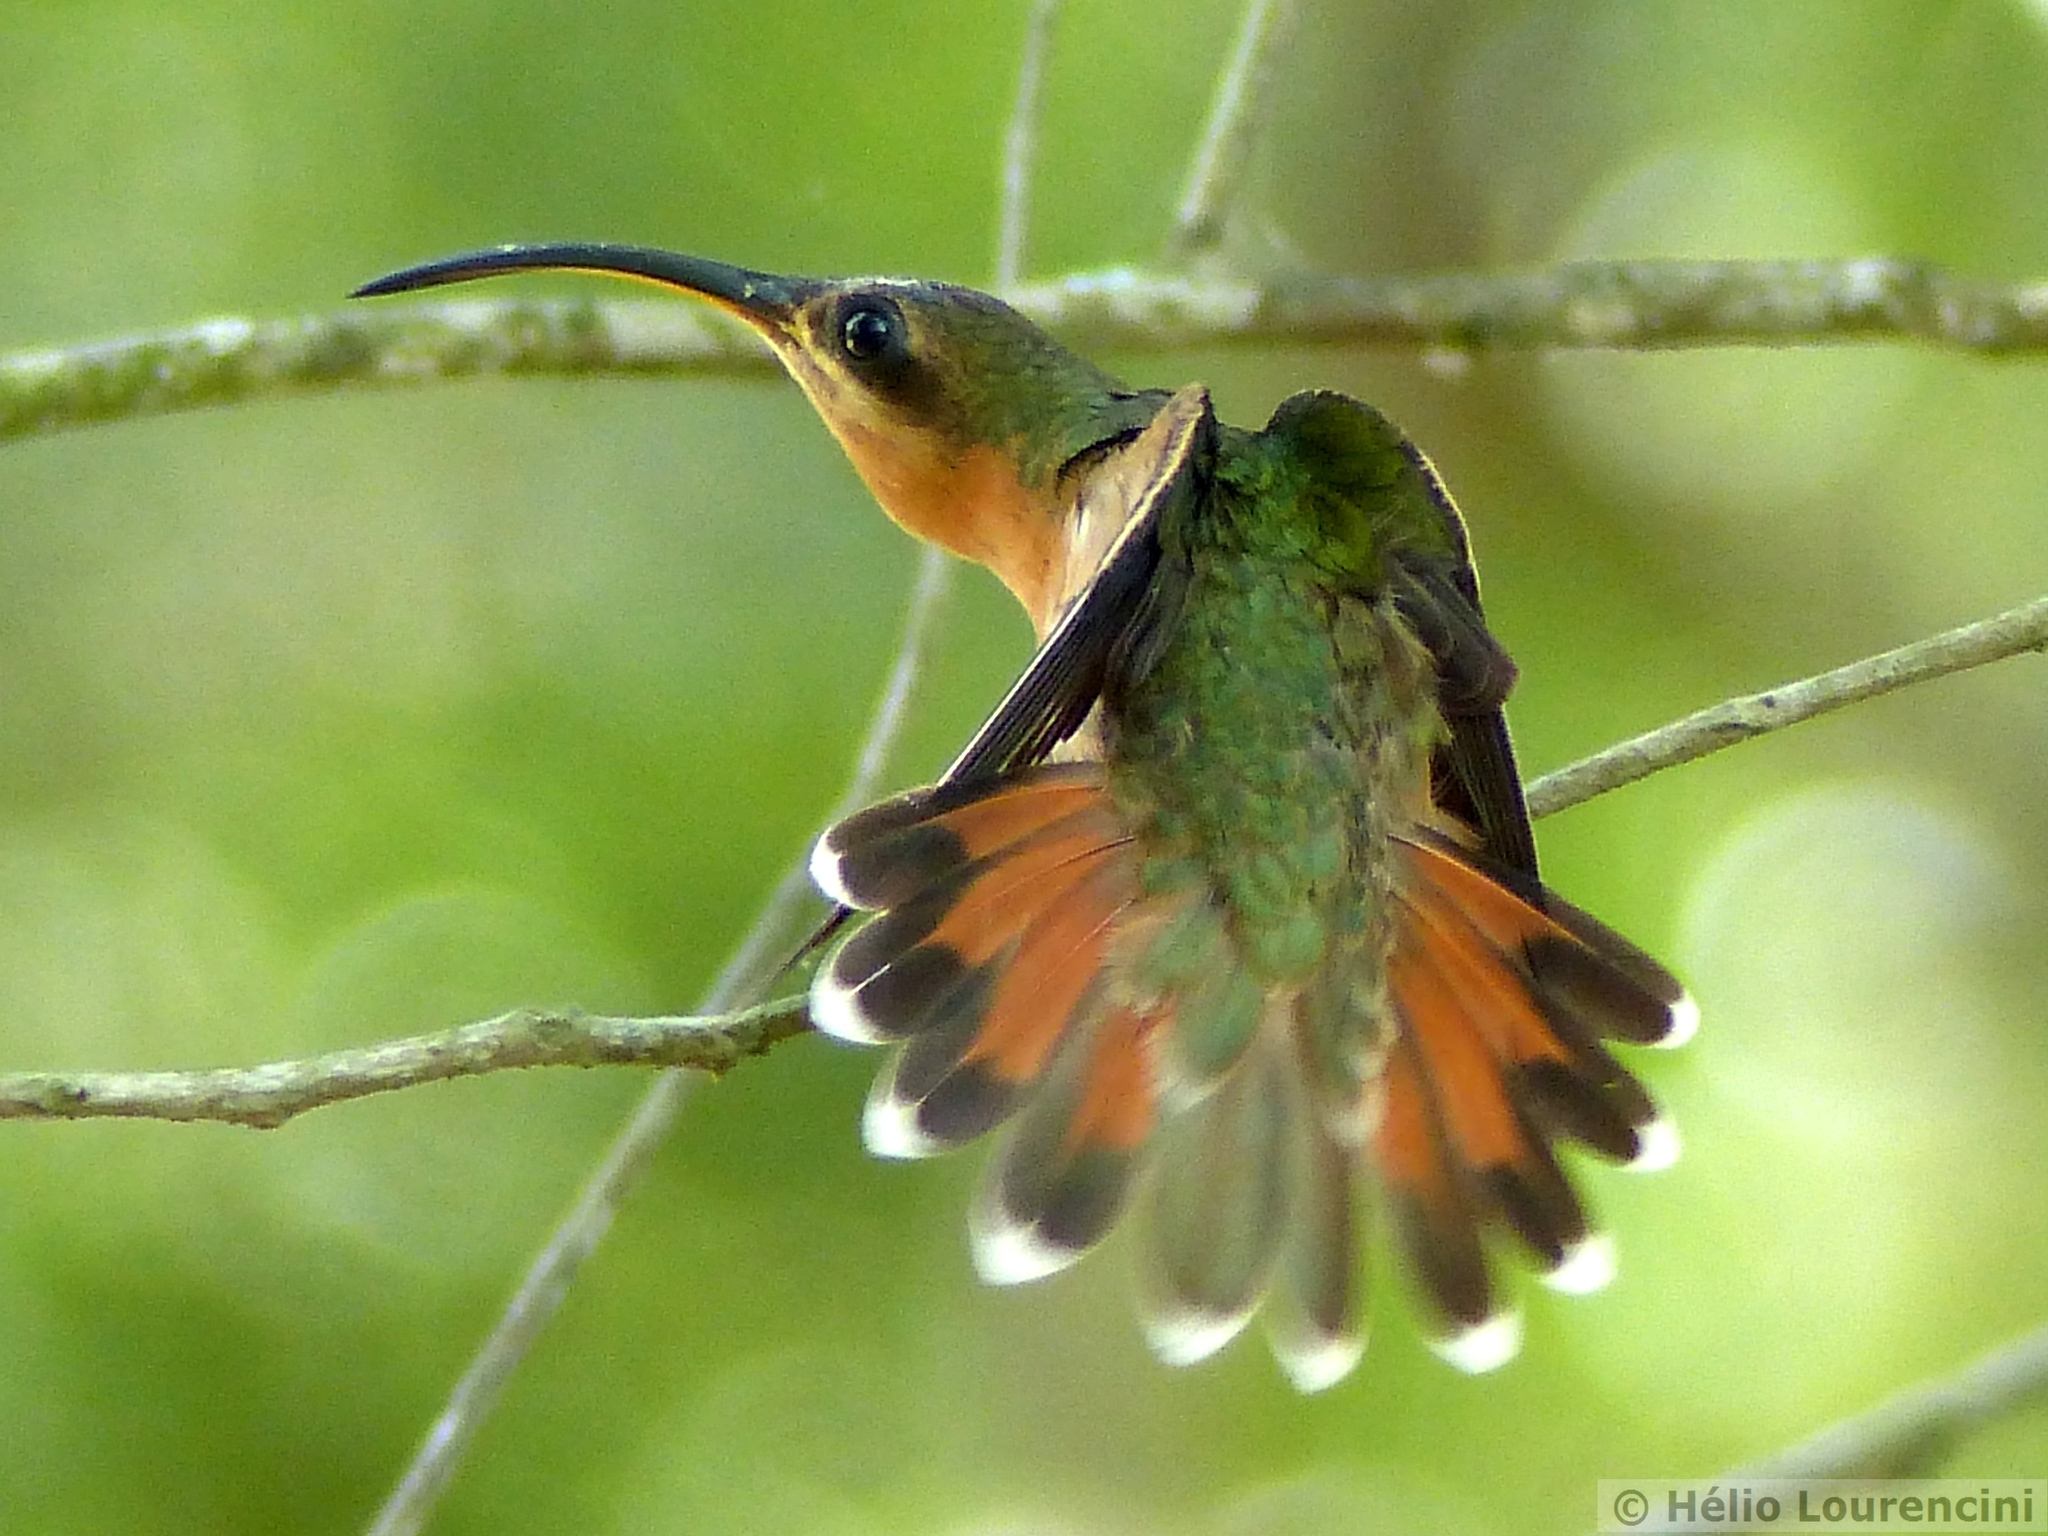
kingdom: Animalia
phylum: Chordata
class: Aves
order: Apodiformes
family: Trochilidae
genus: Glaucis
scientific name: Glaucis hirsutus
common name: Rufous-breasted hermit
